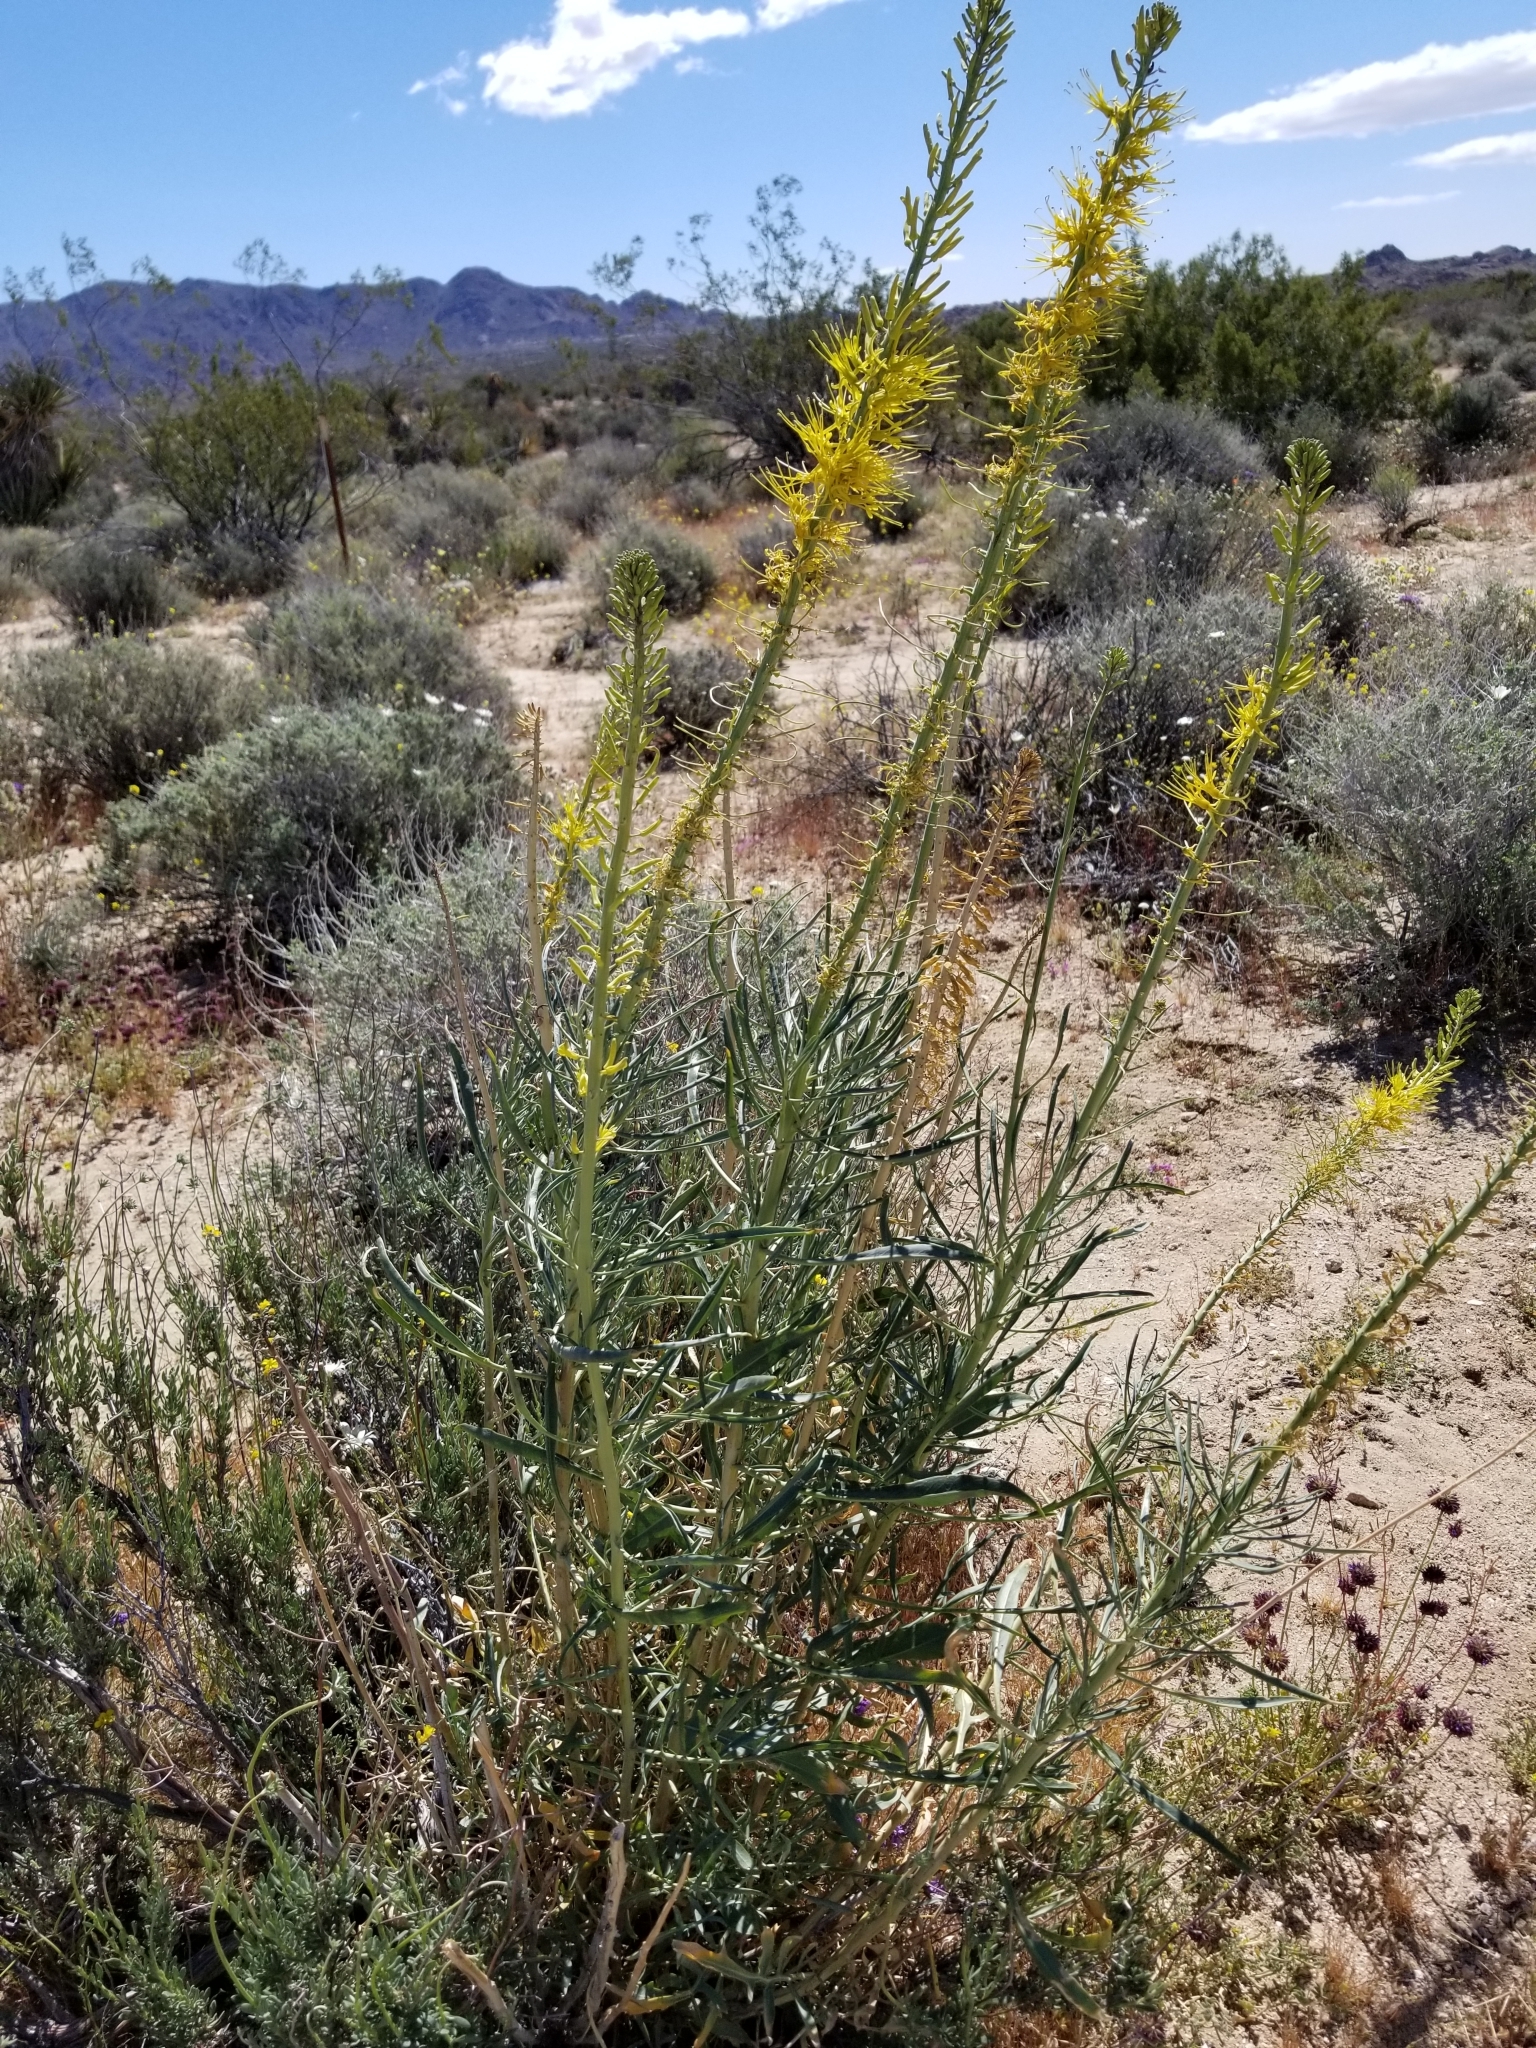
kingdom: Plantae
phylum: Tracheophyta
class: Magnoliopsida
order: Brassicales
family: Brassicaceae
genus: Stanleya
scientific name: Stanleya pinnata
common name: Prince's-plume
